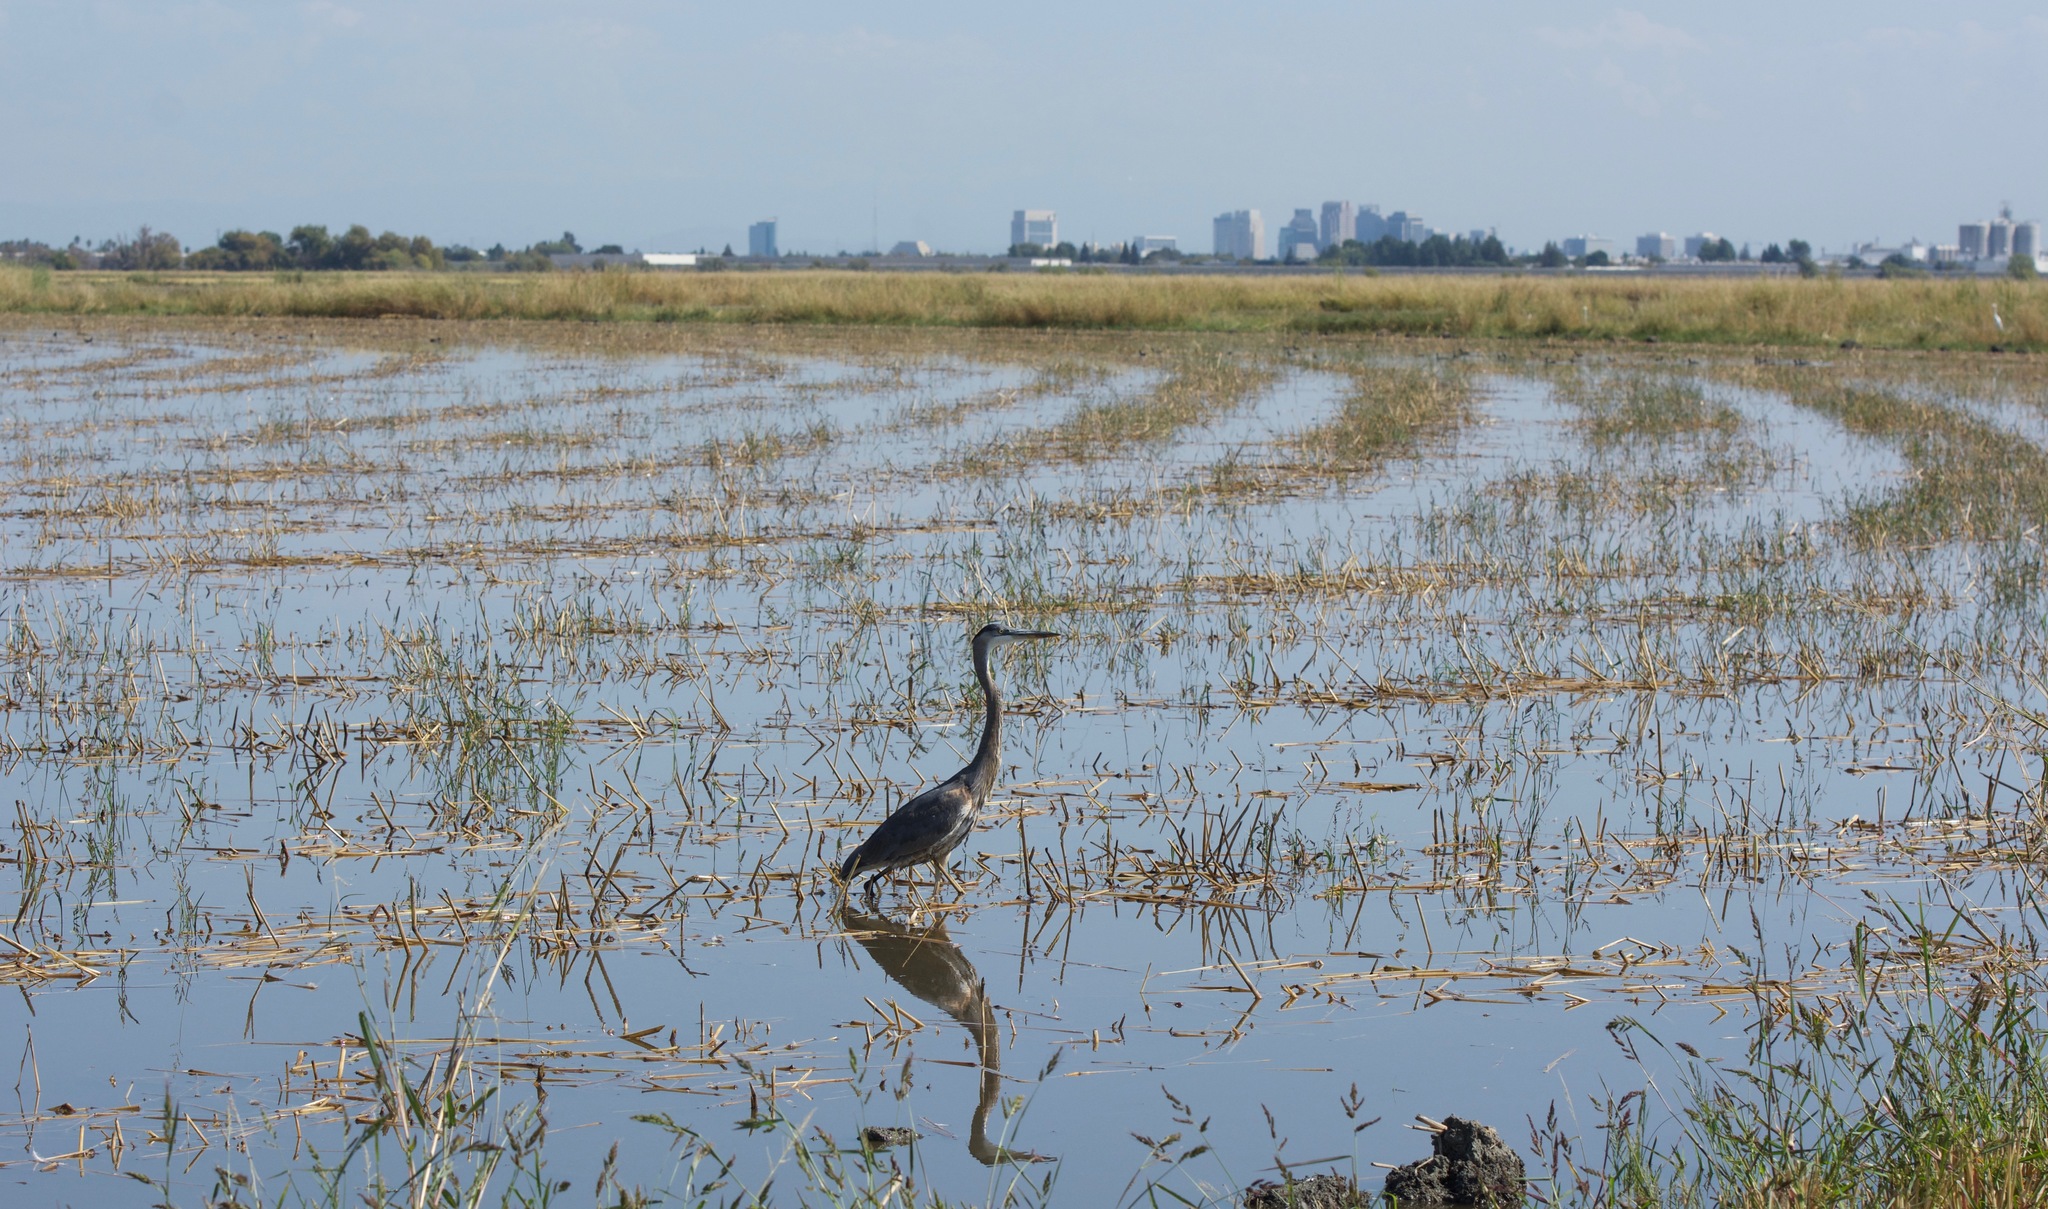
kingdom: Animalia
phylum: Chordata
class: Aves
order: Pelecaniformes
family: Ardeidae
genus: Ardea
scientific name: Ardea herodias
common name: Great blue heron
